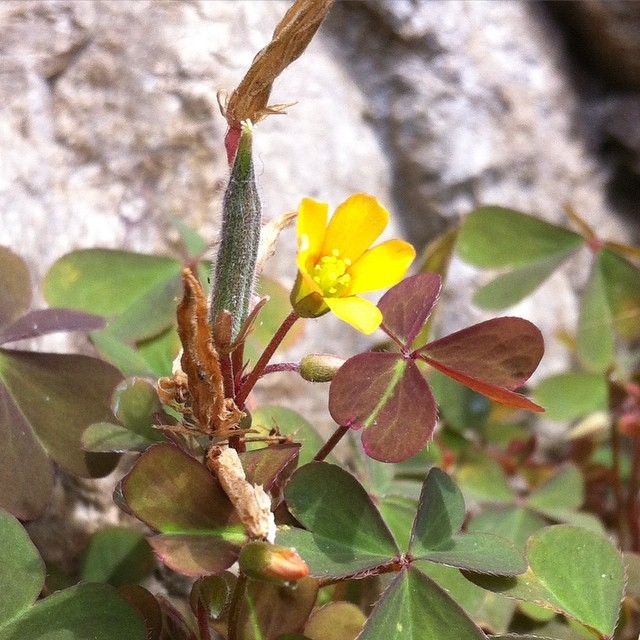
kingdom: Plantae
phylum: Tracheophyta
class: Magnoliopsida
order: Oxalidales
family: Oxalidaceae
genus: Oxalis
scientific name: Oxalis corniculata
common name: Procumbent yellow-sorrel
